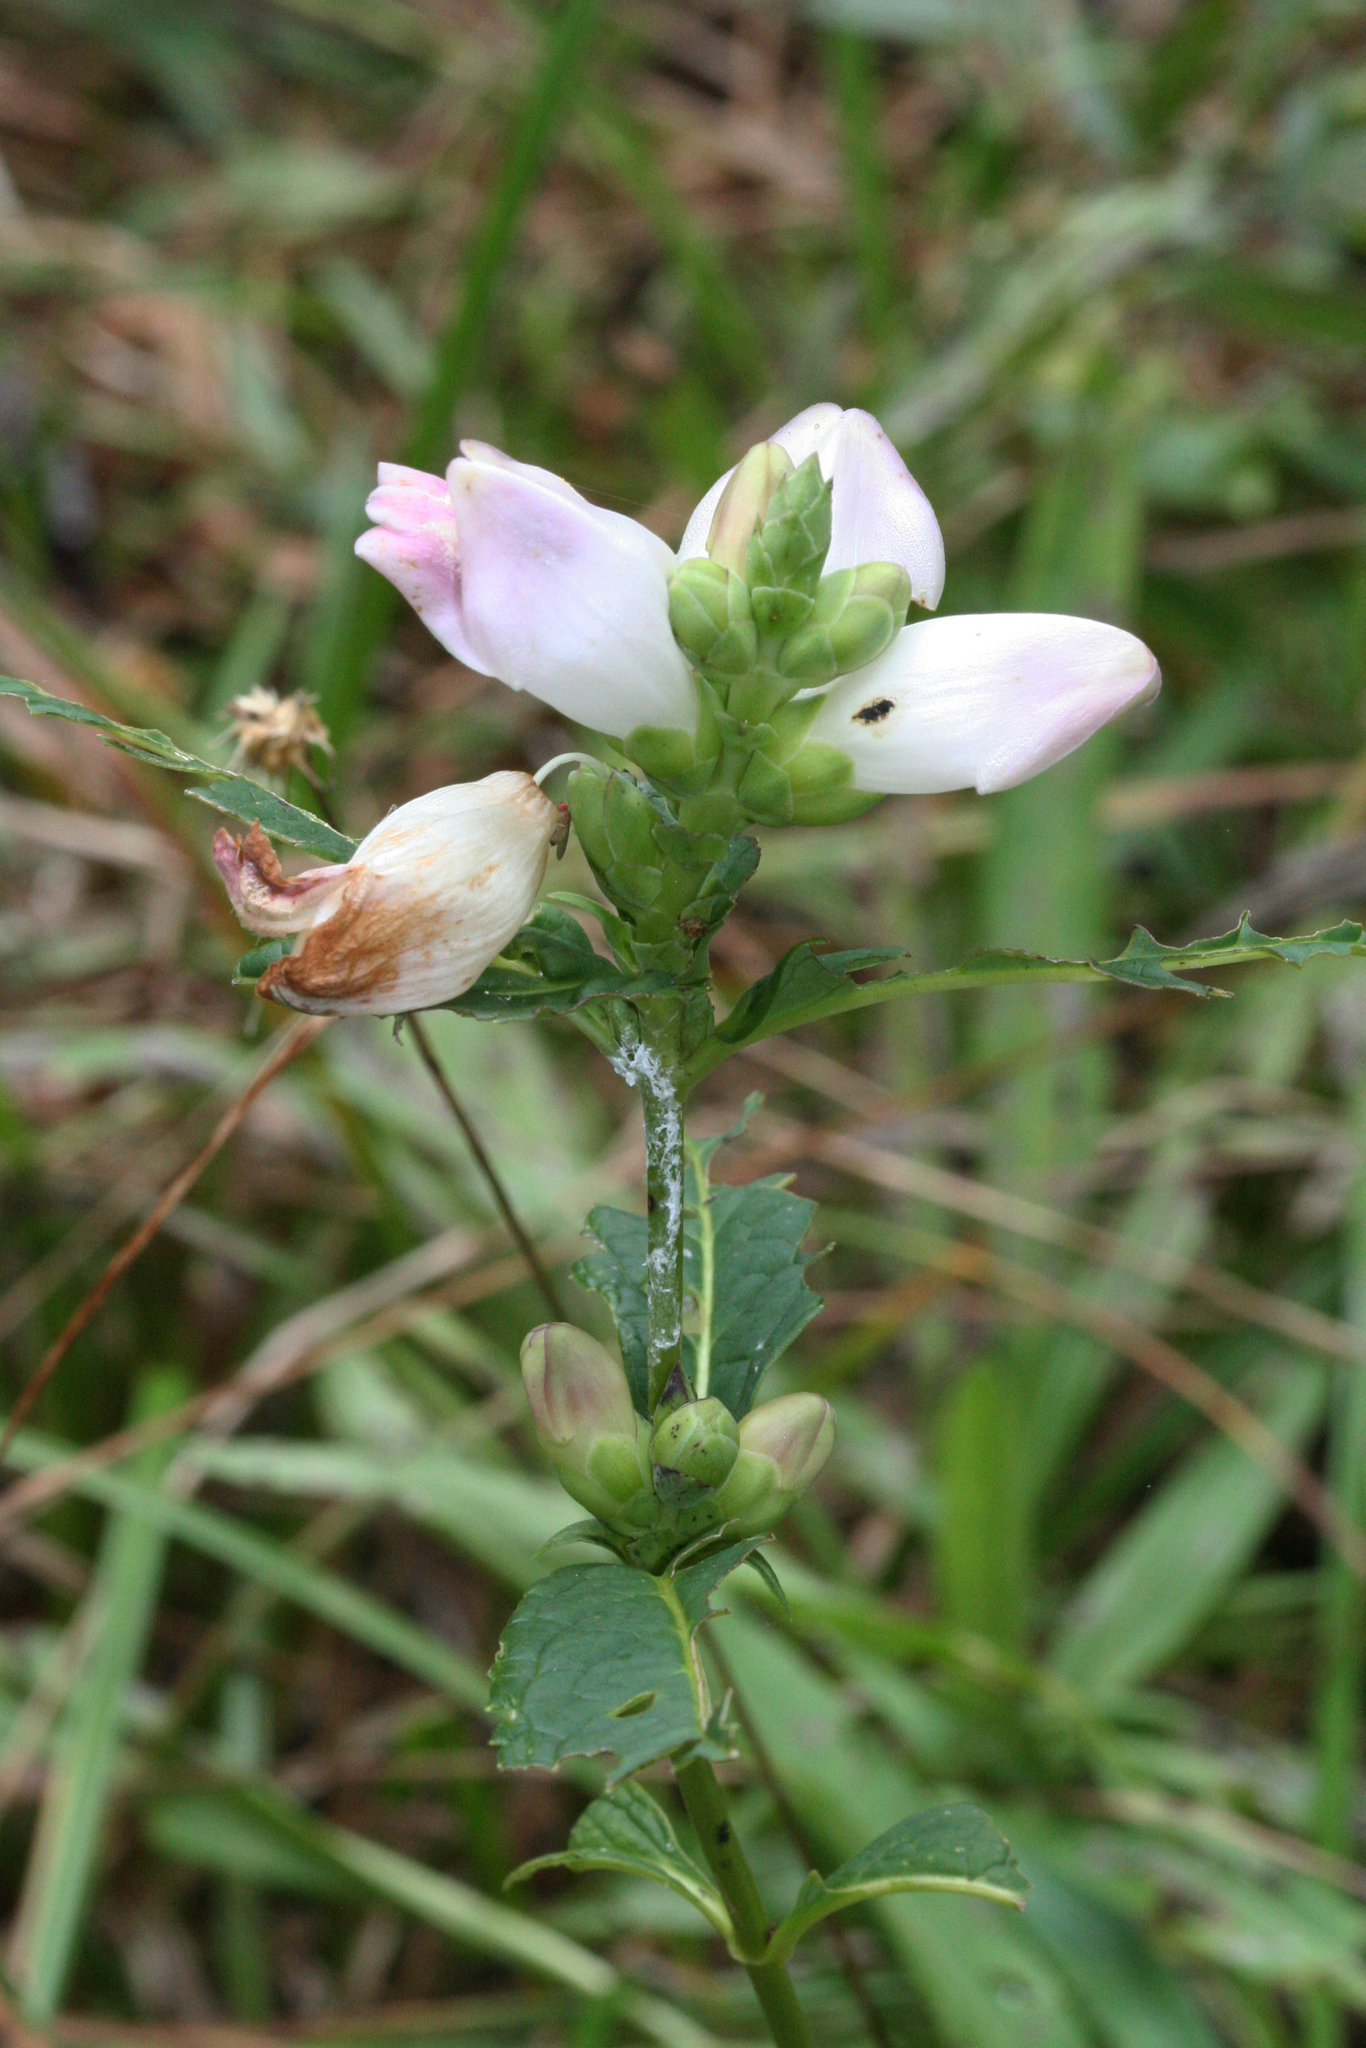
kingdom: Plantae
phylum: Tracheophyta
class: Magnoliopsida
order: Lamiales
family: Plantaginaceae
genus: Chelone
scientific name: Chelone glabra
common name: Snakehead
